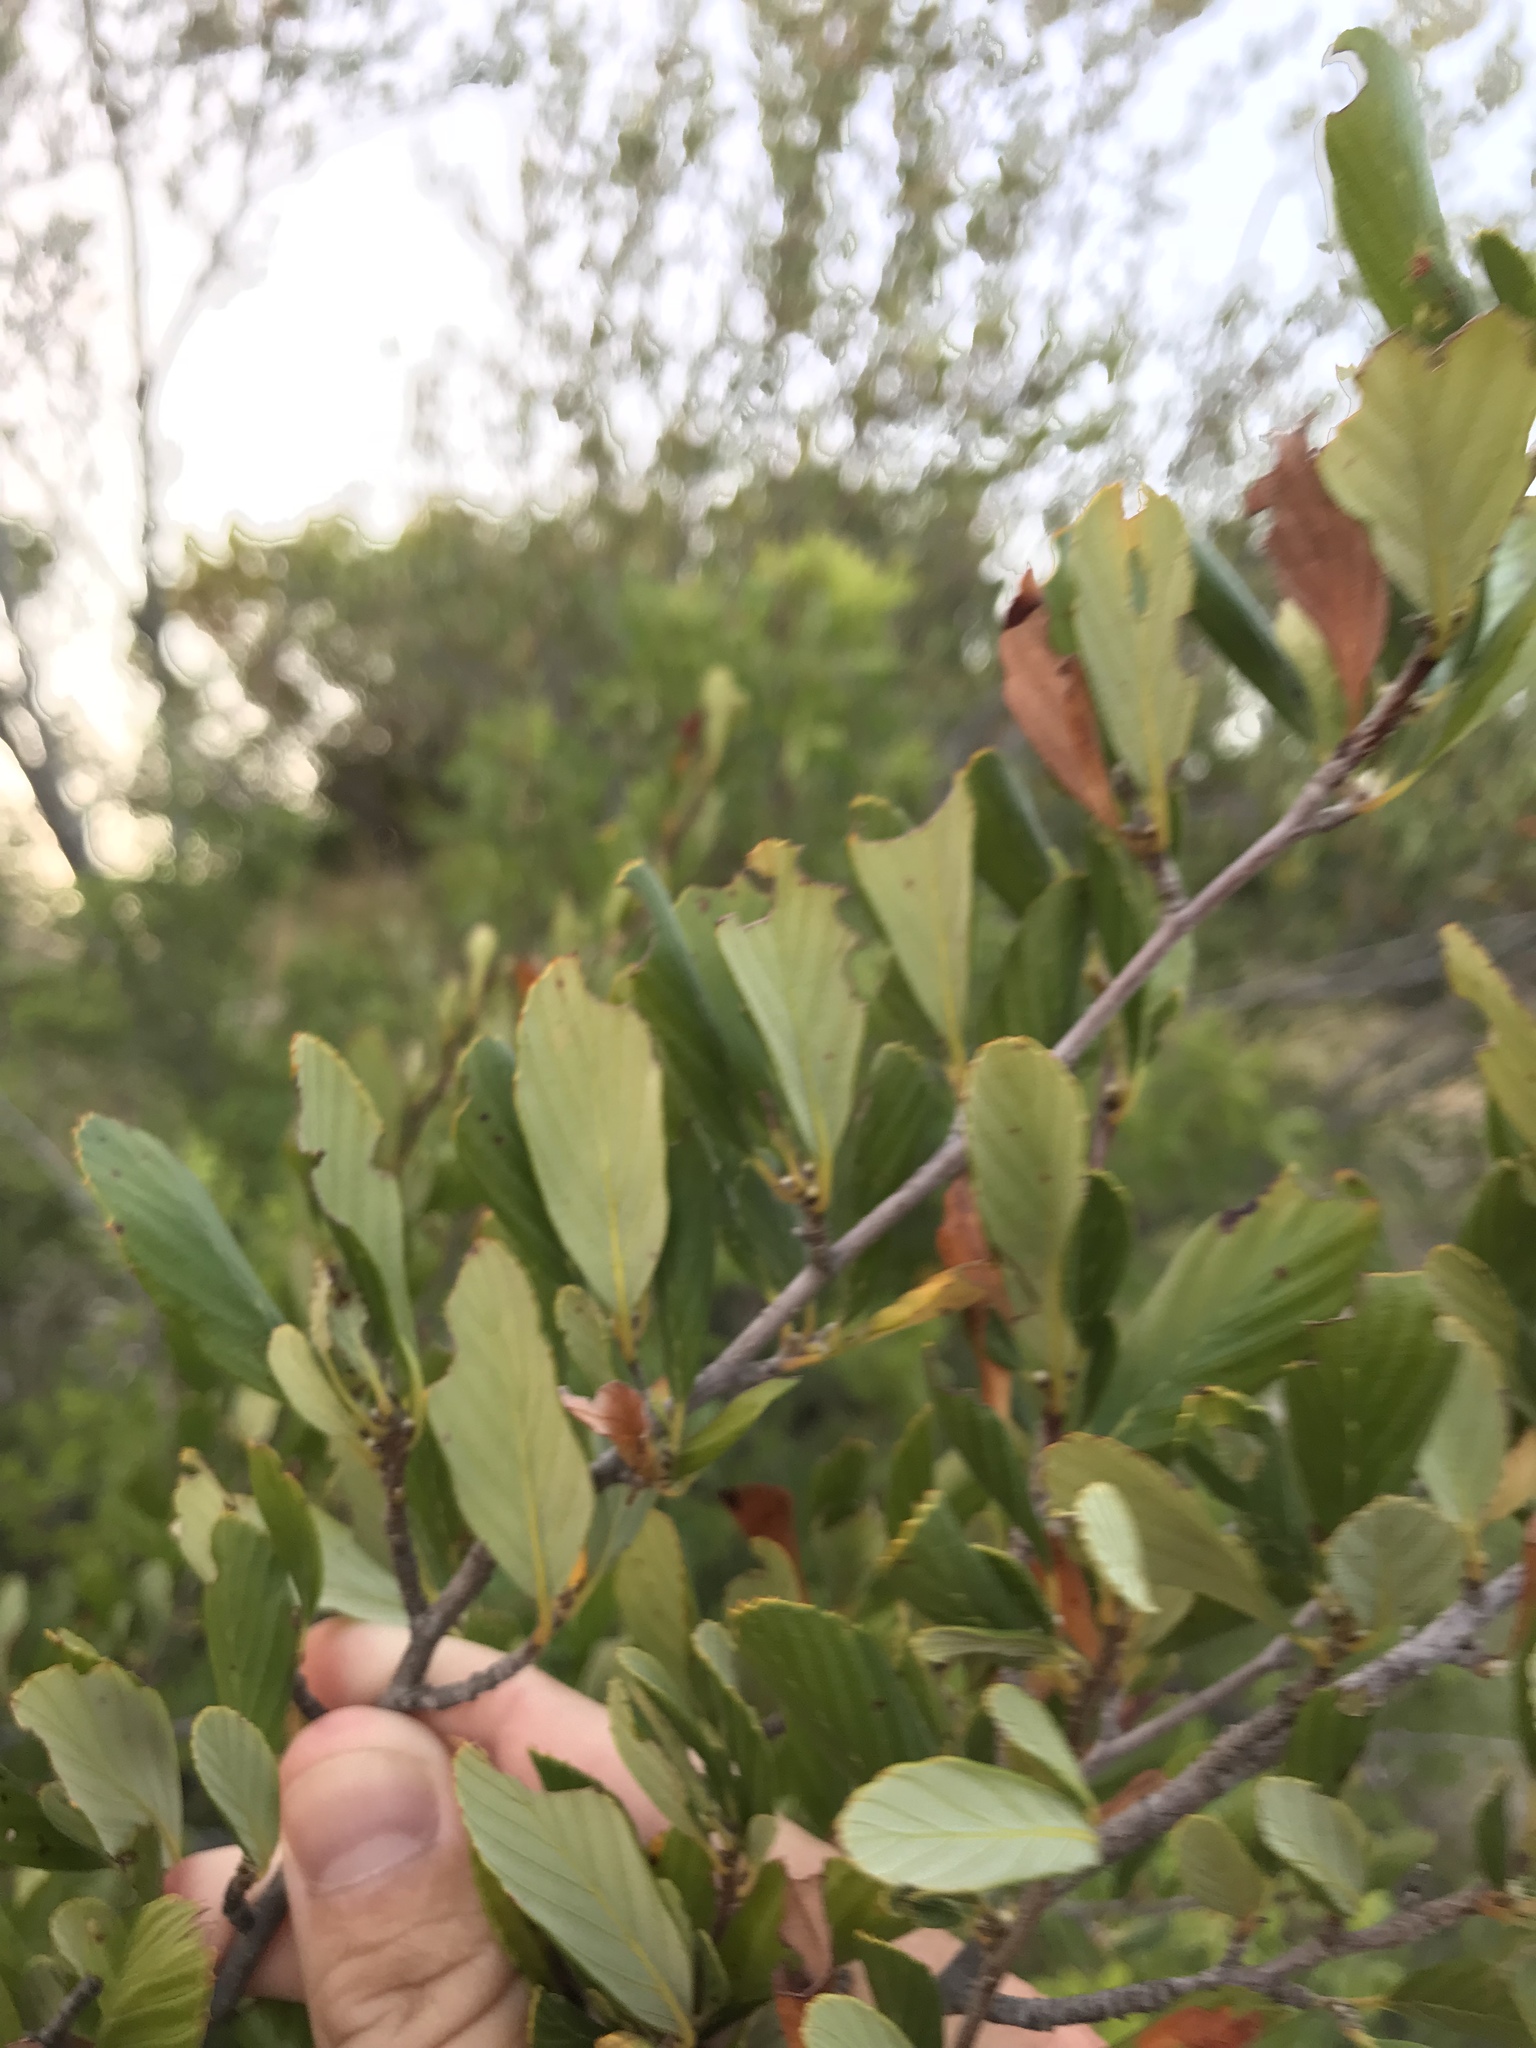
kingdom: Plantae
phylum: Tracheophyta
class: Magnoliopsida
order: Rosales
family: Rosaceae
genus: Cercocarpus
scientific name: Cercocarpus montanus
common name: Alder-leaf cercocarpus
